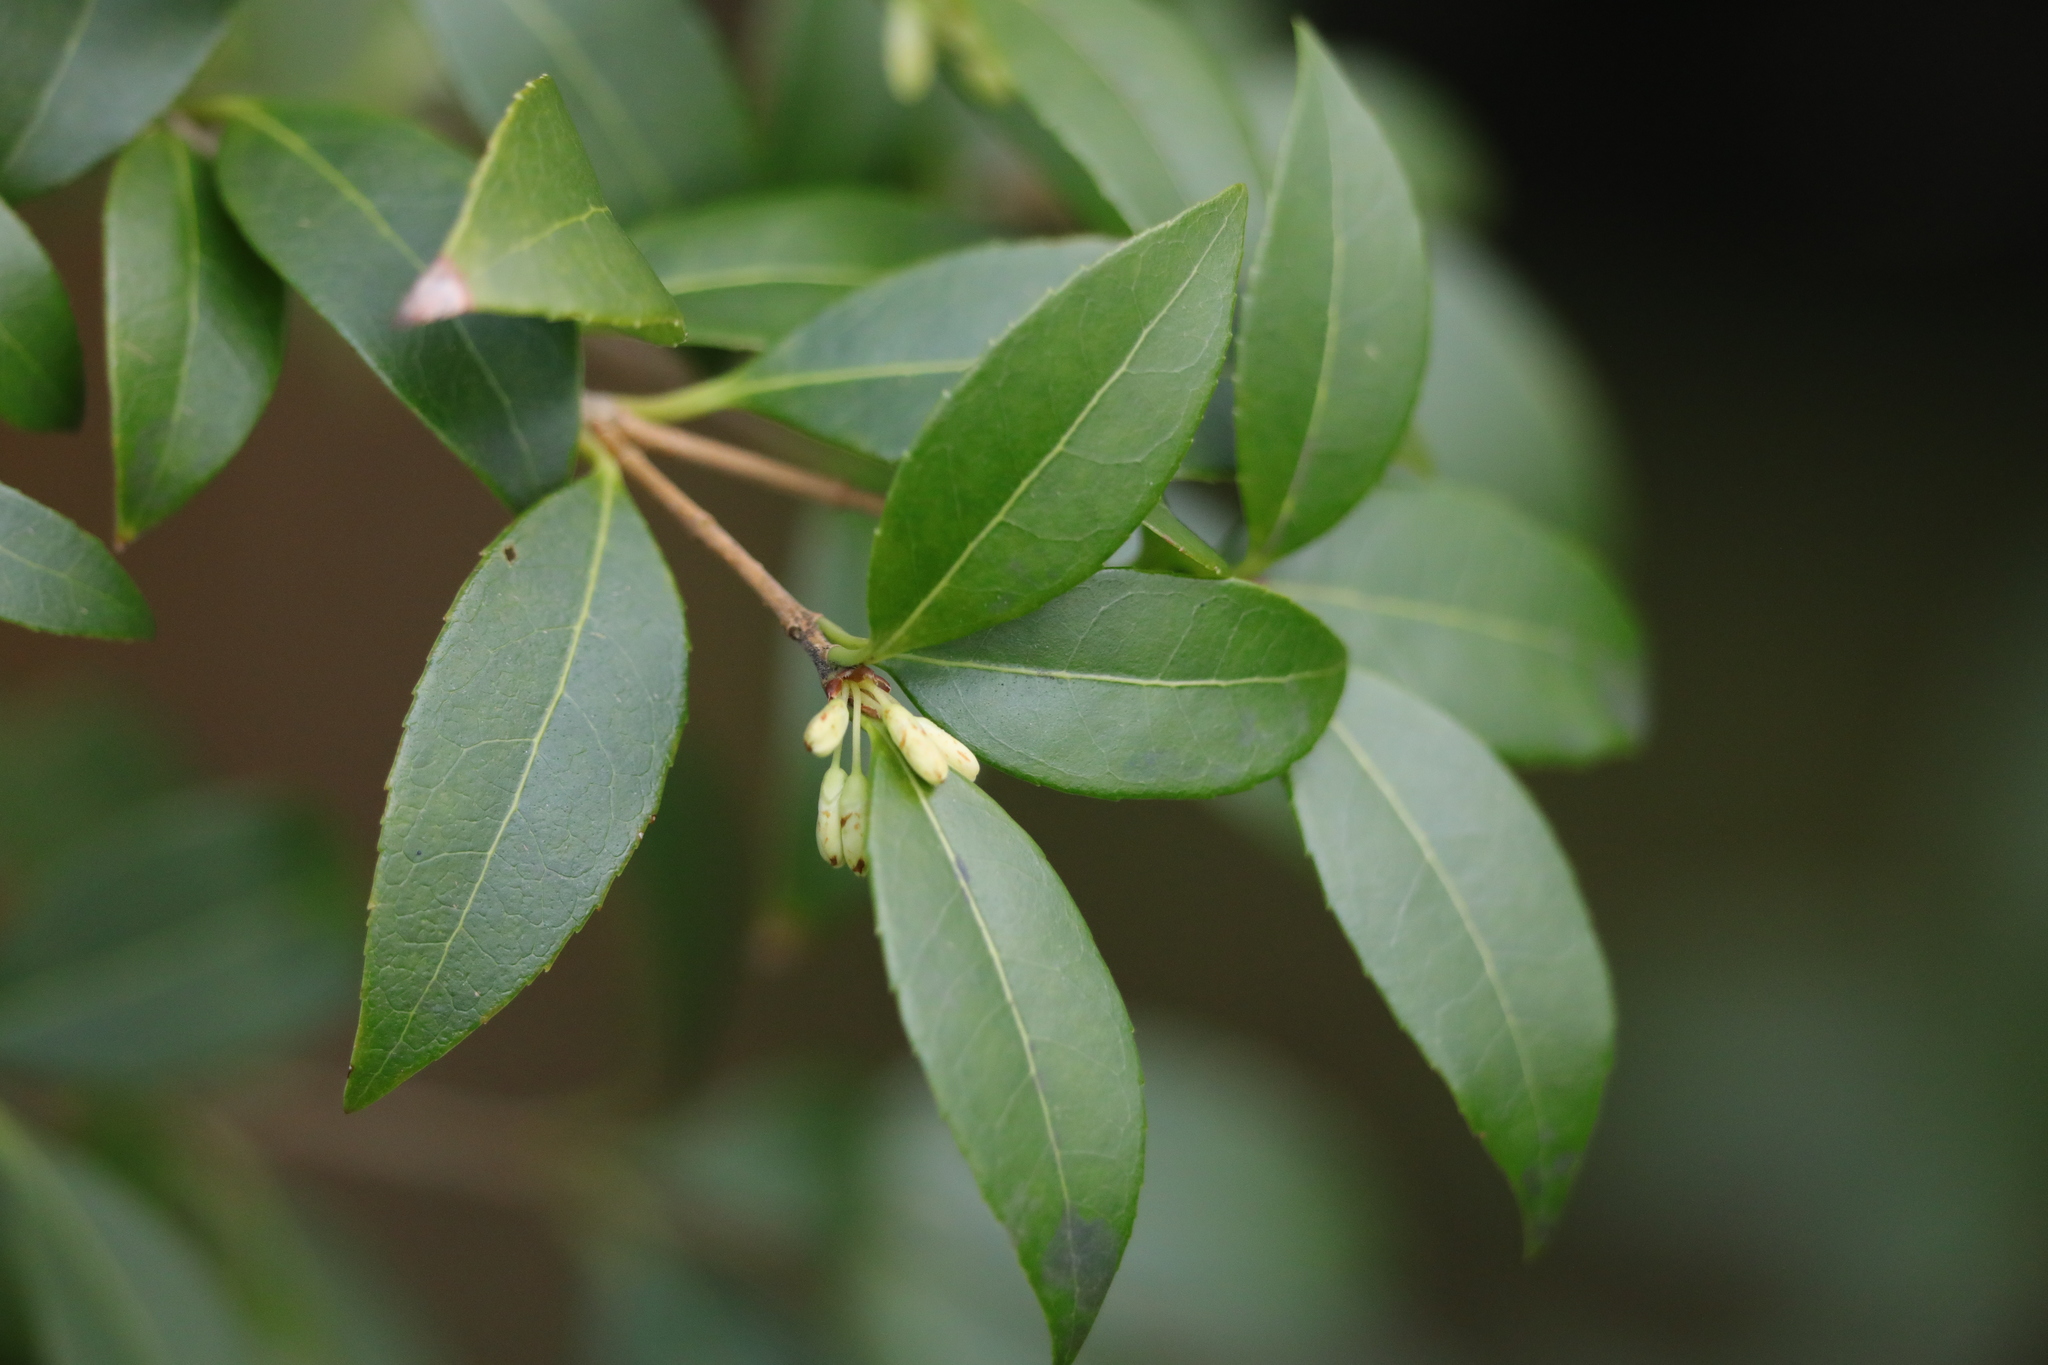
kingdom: Plantae
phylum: Tracheophyta
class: Magnoliopsida
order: Lamiales
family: Oleaceae
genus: Osmanthus
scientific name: Osmanthus burkwoodii
